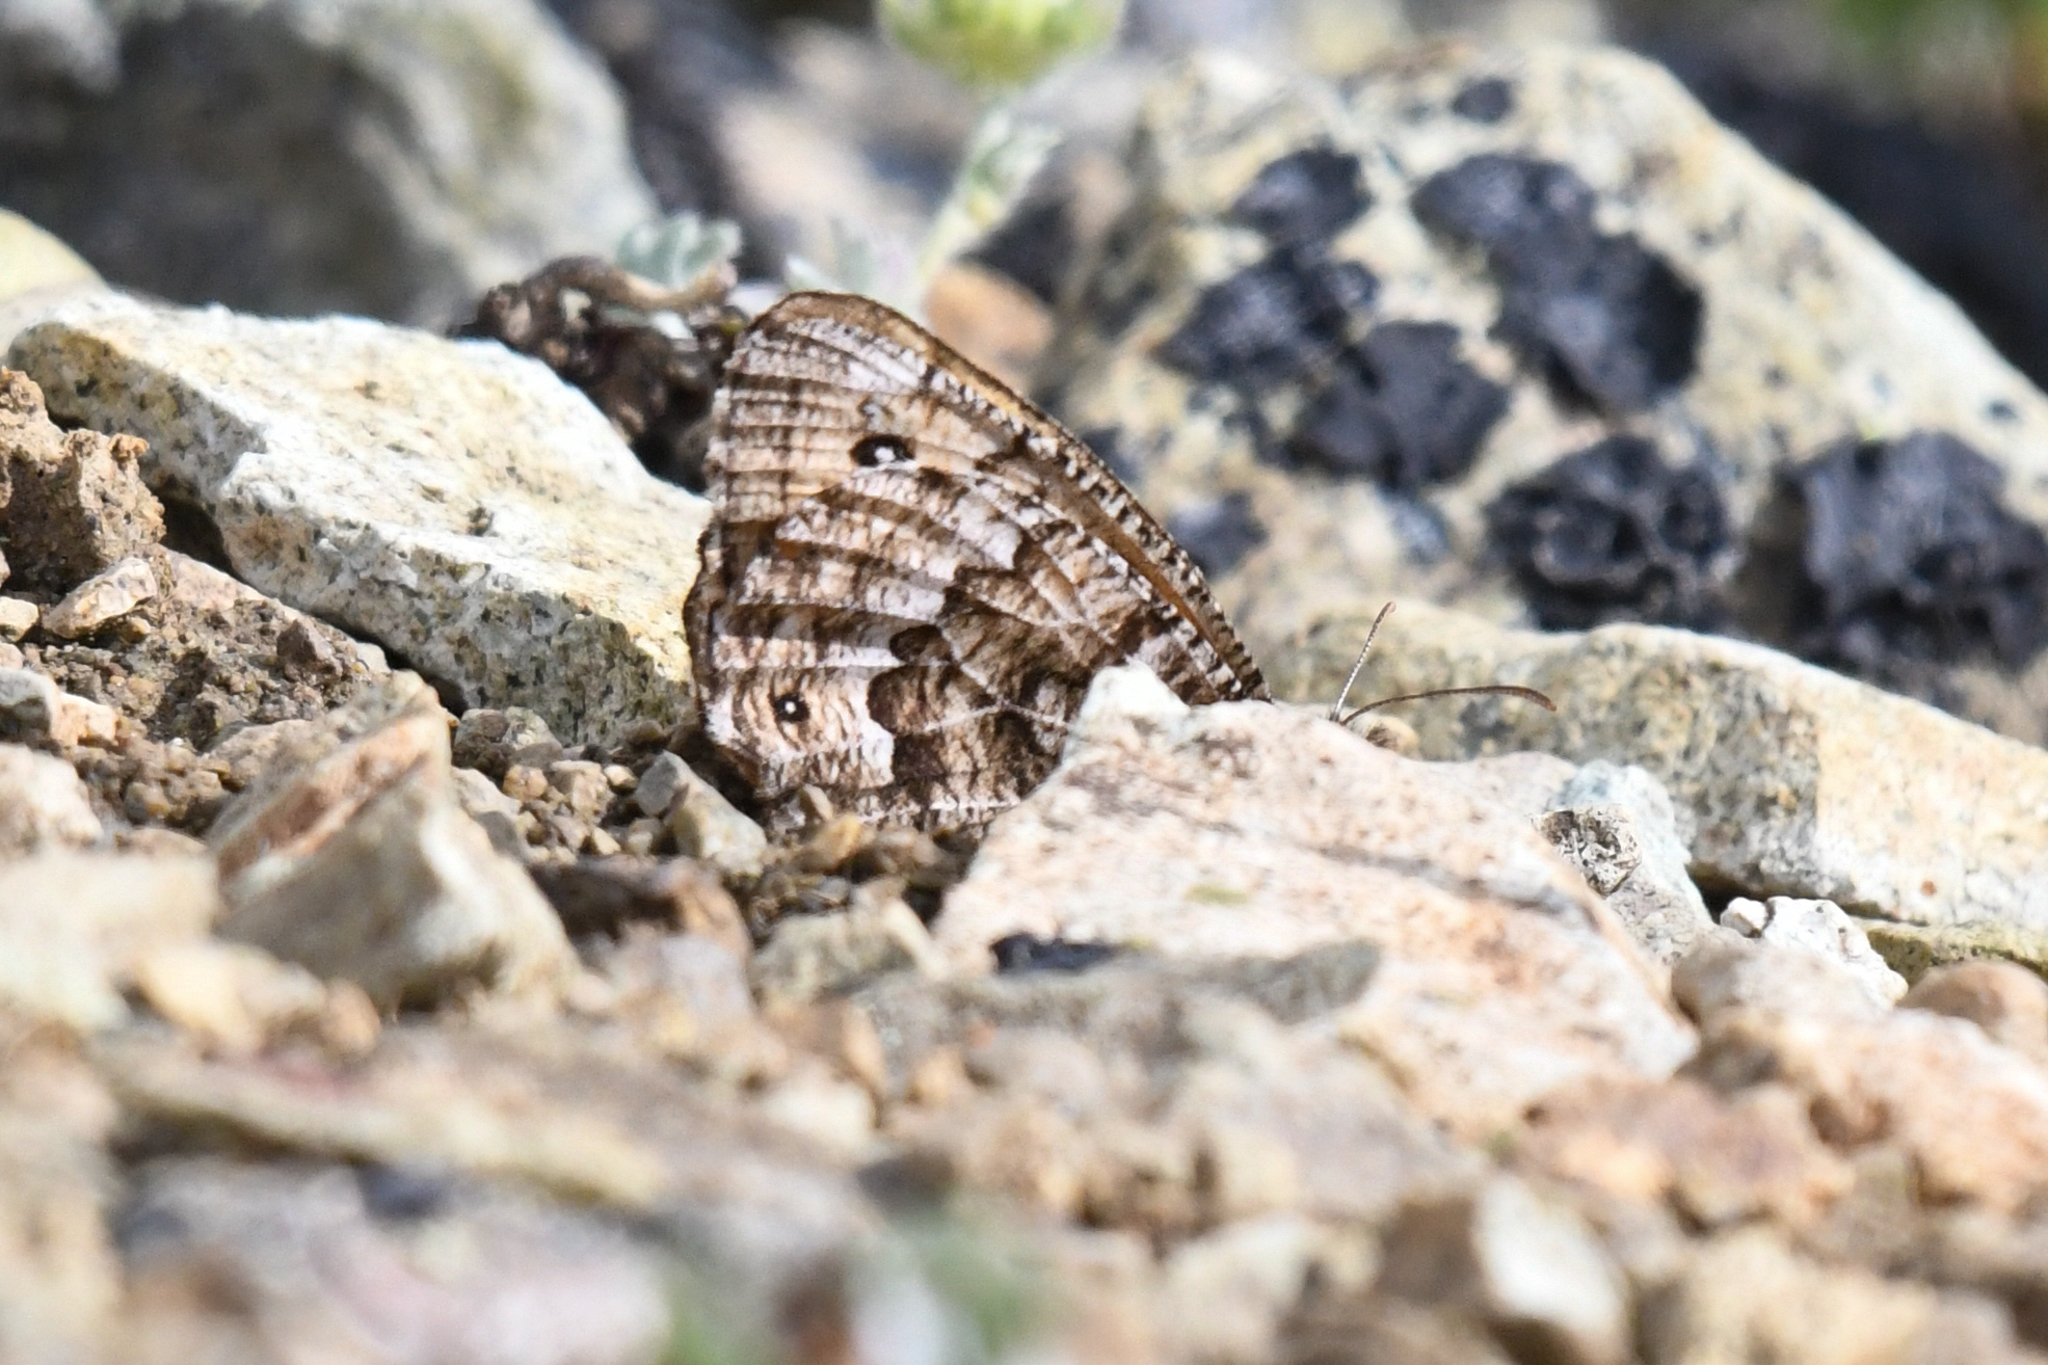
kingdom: Animalia
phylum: Arthropoda
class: Insecta
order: Lepidoptera
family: Nymphalidae
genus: Oeneis
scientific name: Oeneis chryxus
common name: Chryxus arctic
